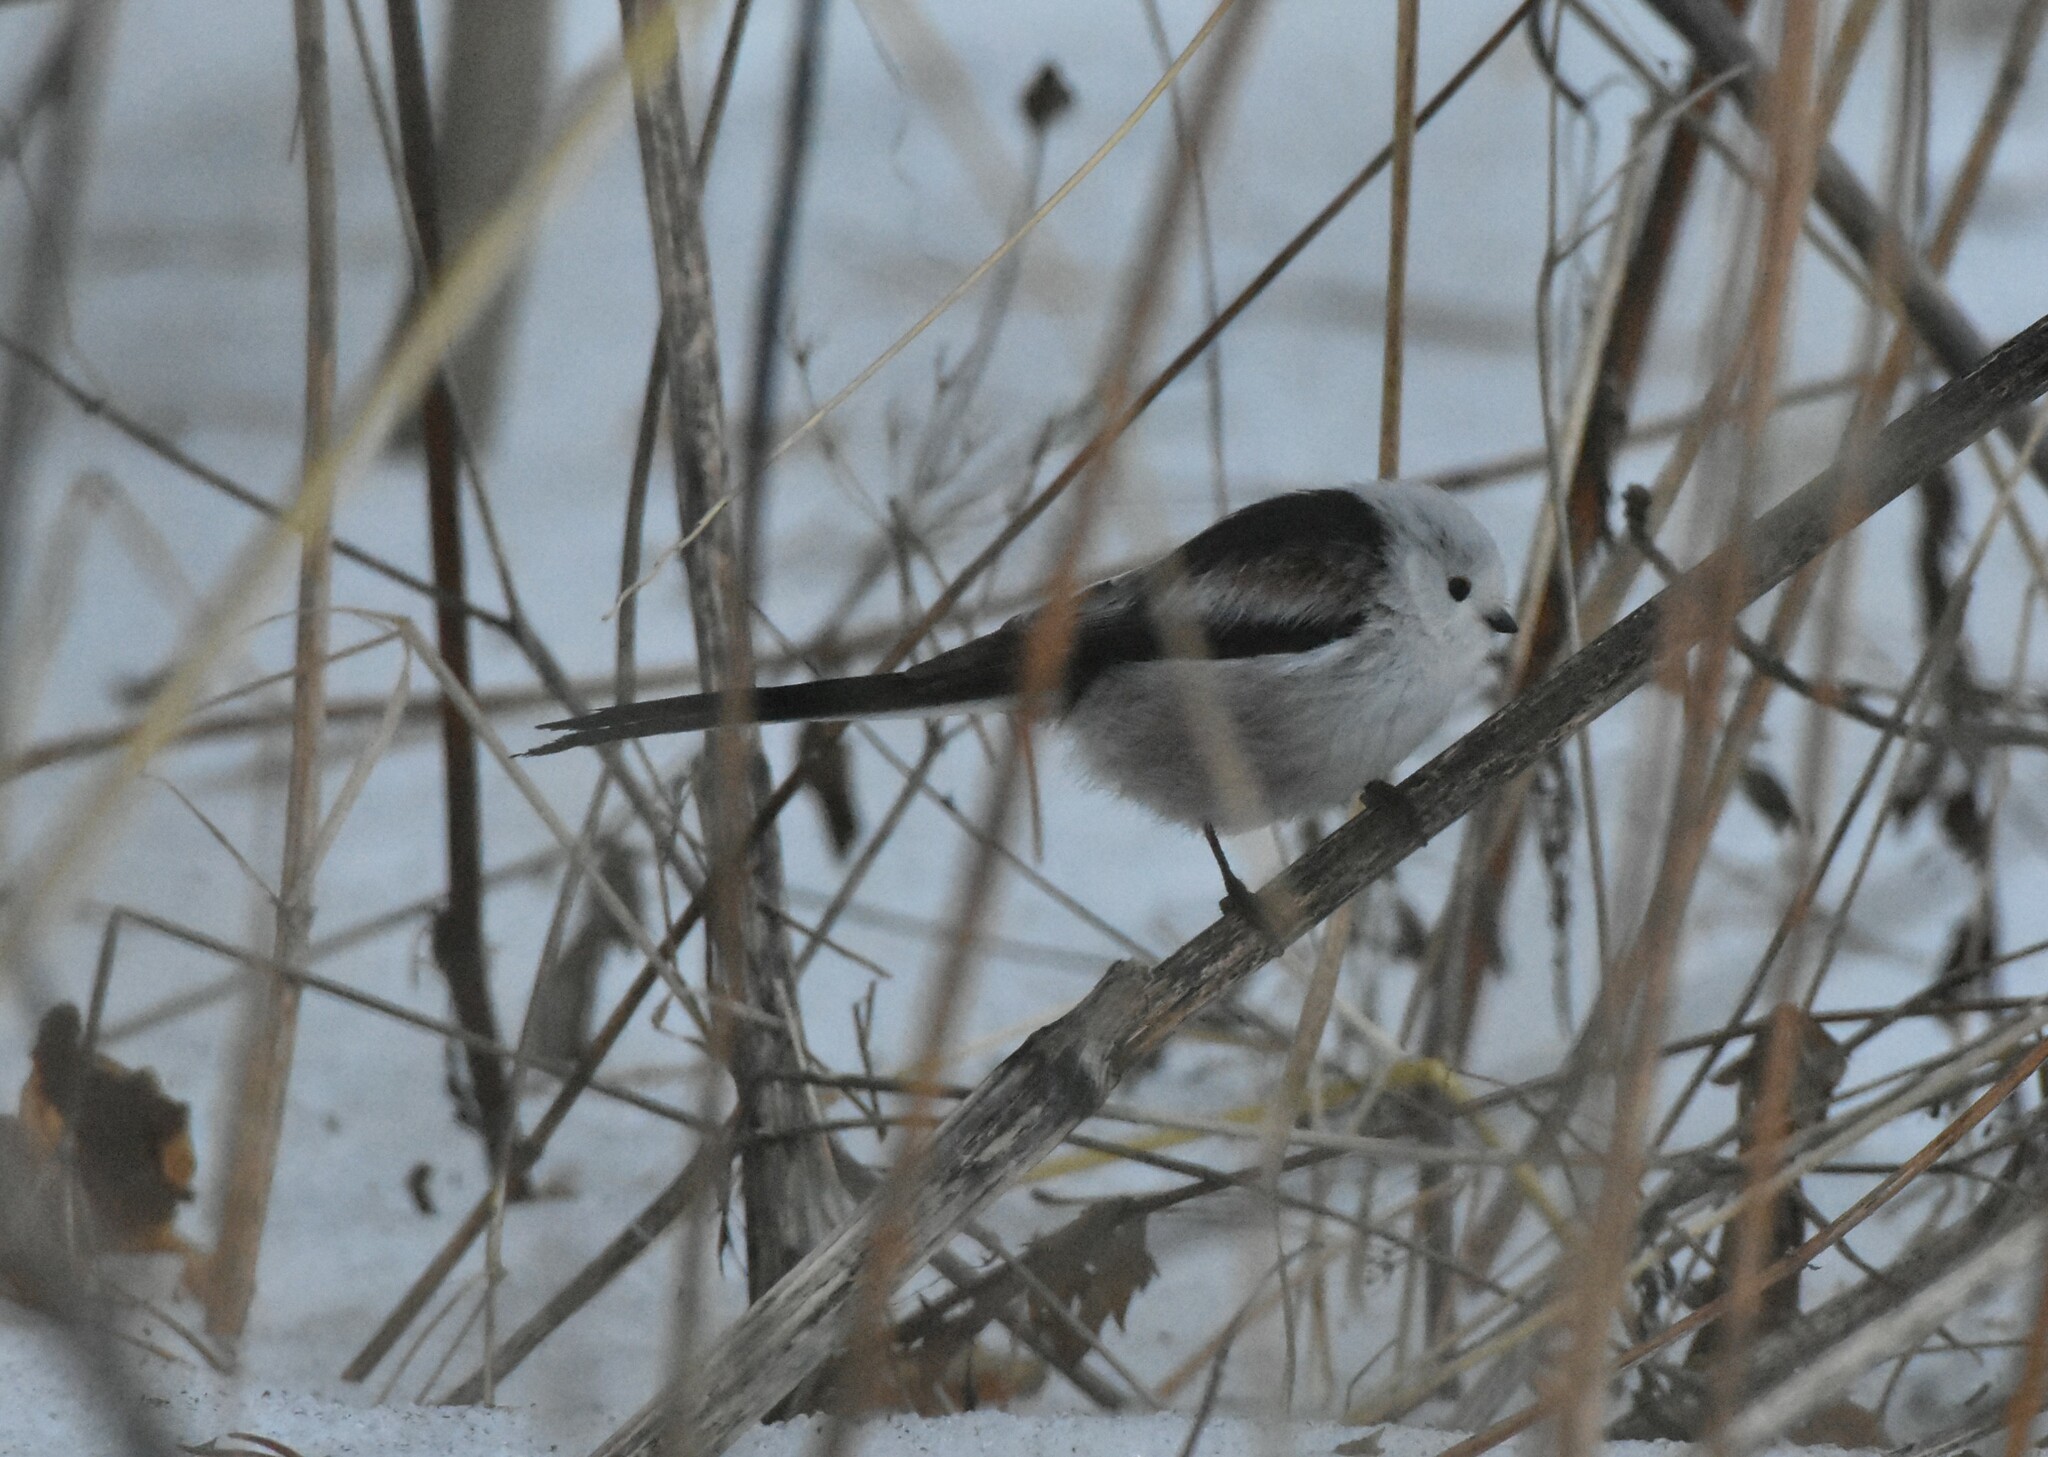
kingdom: Animalia
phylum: Chordata
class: Aves
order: Passeriformes
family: Aegithalidae
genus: Aegithalos
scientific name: Aegithalos caudatus
